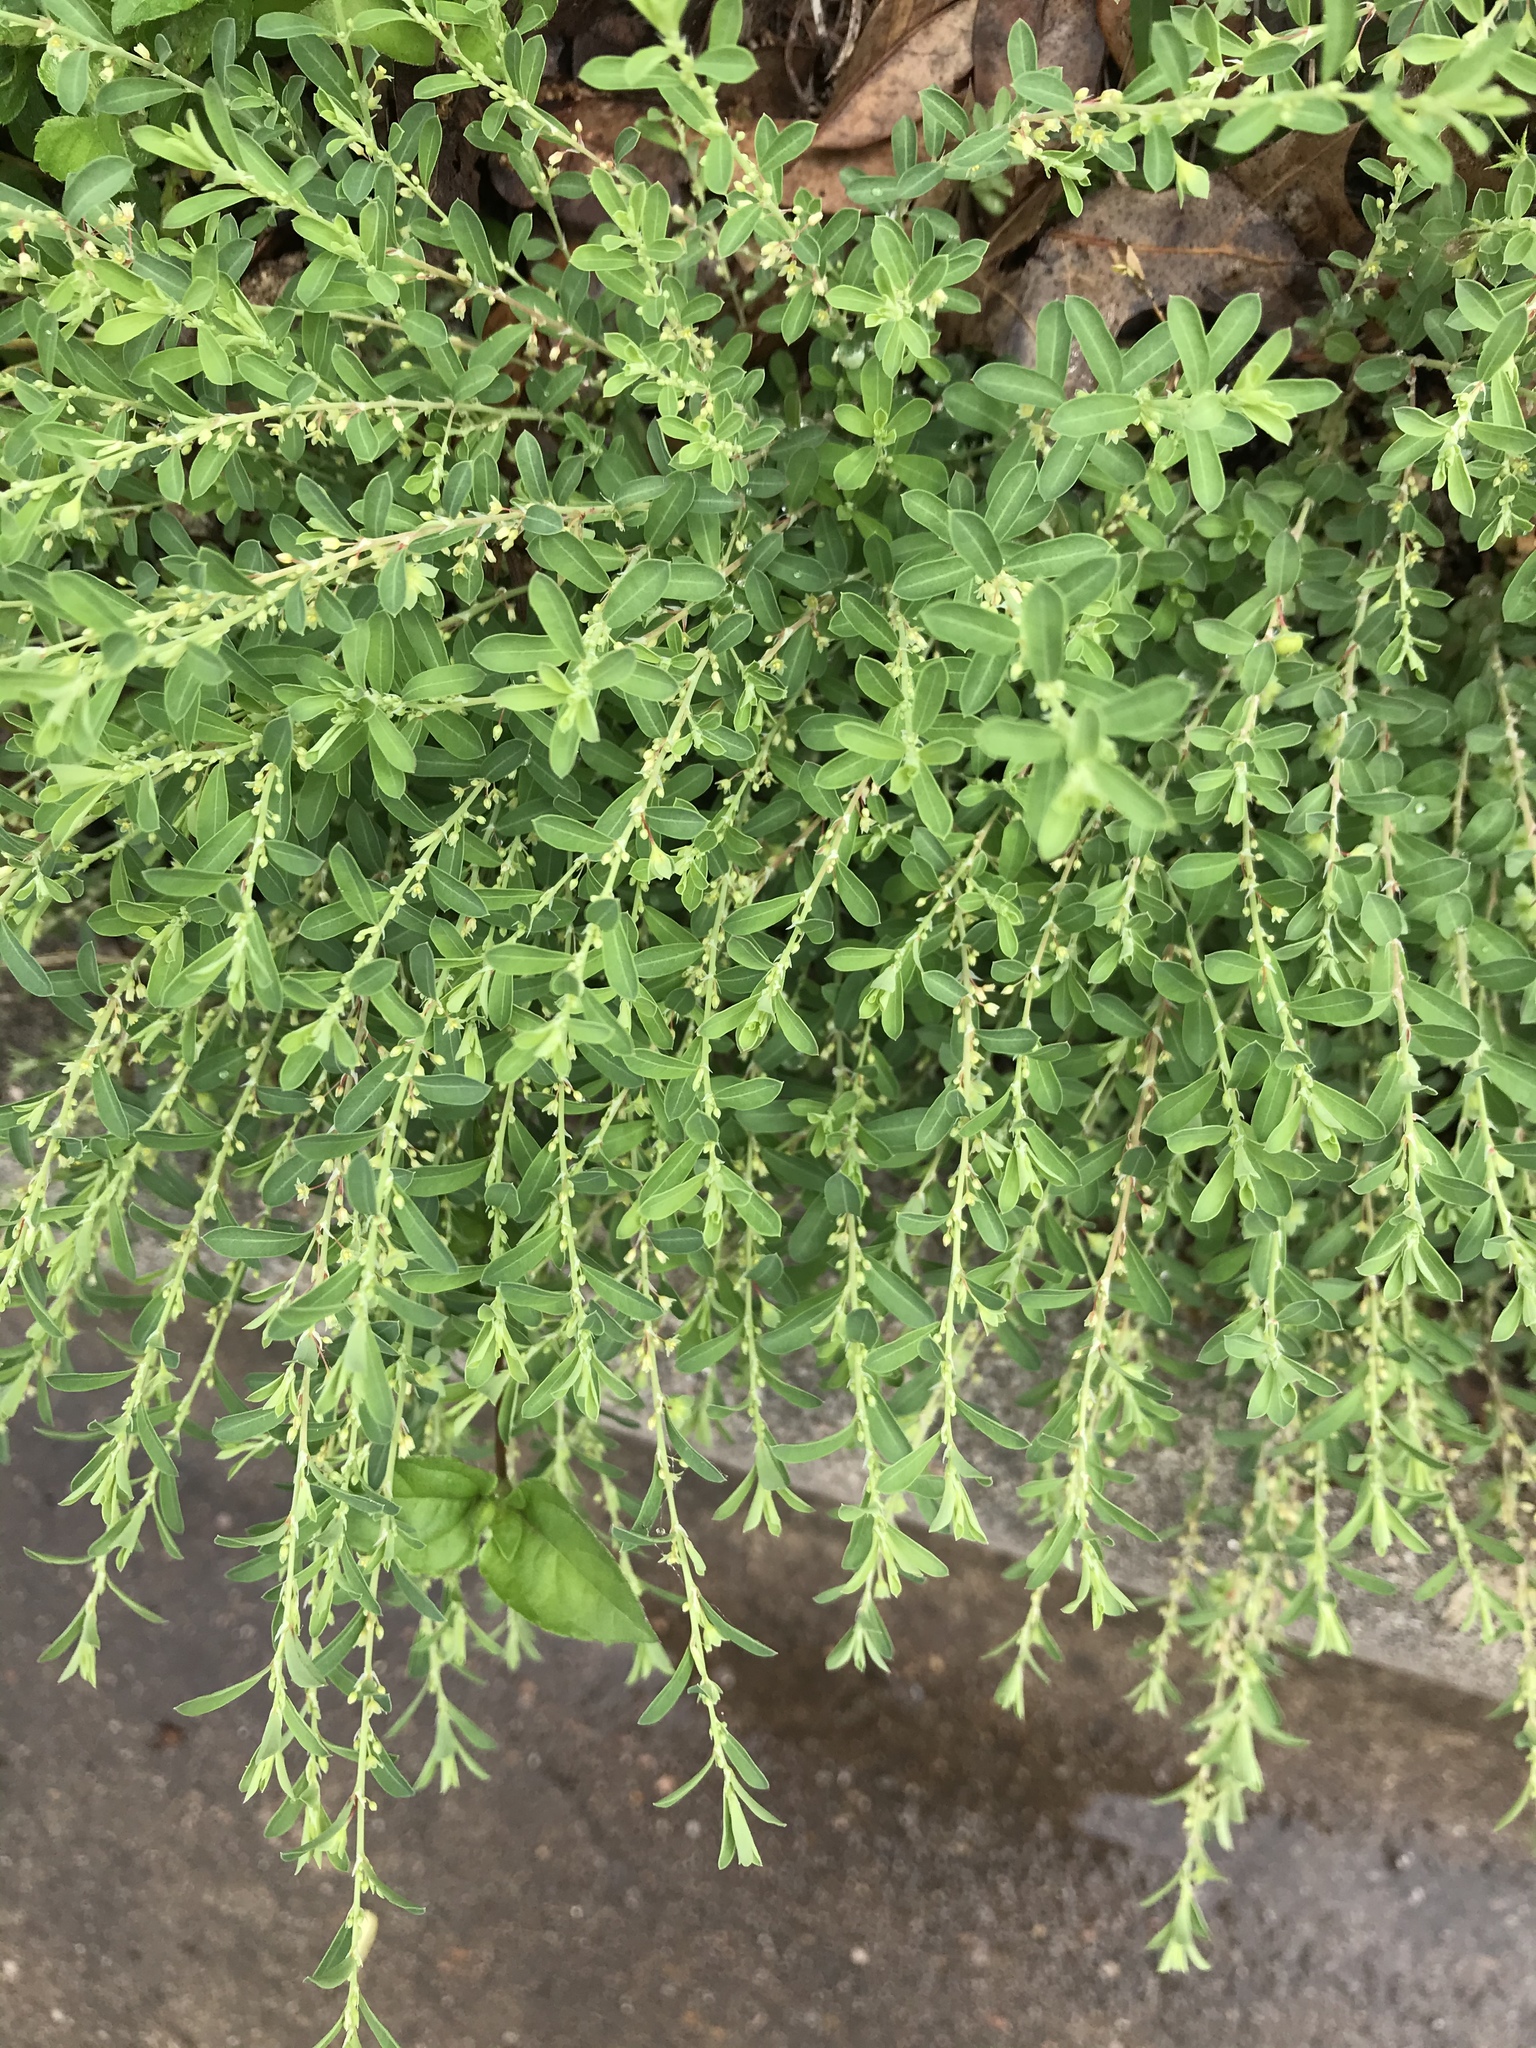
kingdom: Plantae
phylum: Tracheophyta
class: Magnoliopsida
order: Malpighiales
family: Phyllanthaceae
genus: Phyllanthus
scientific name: Phyllanthus polygonoides
